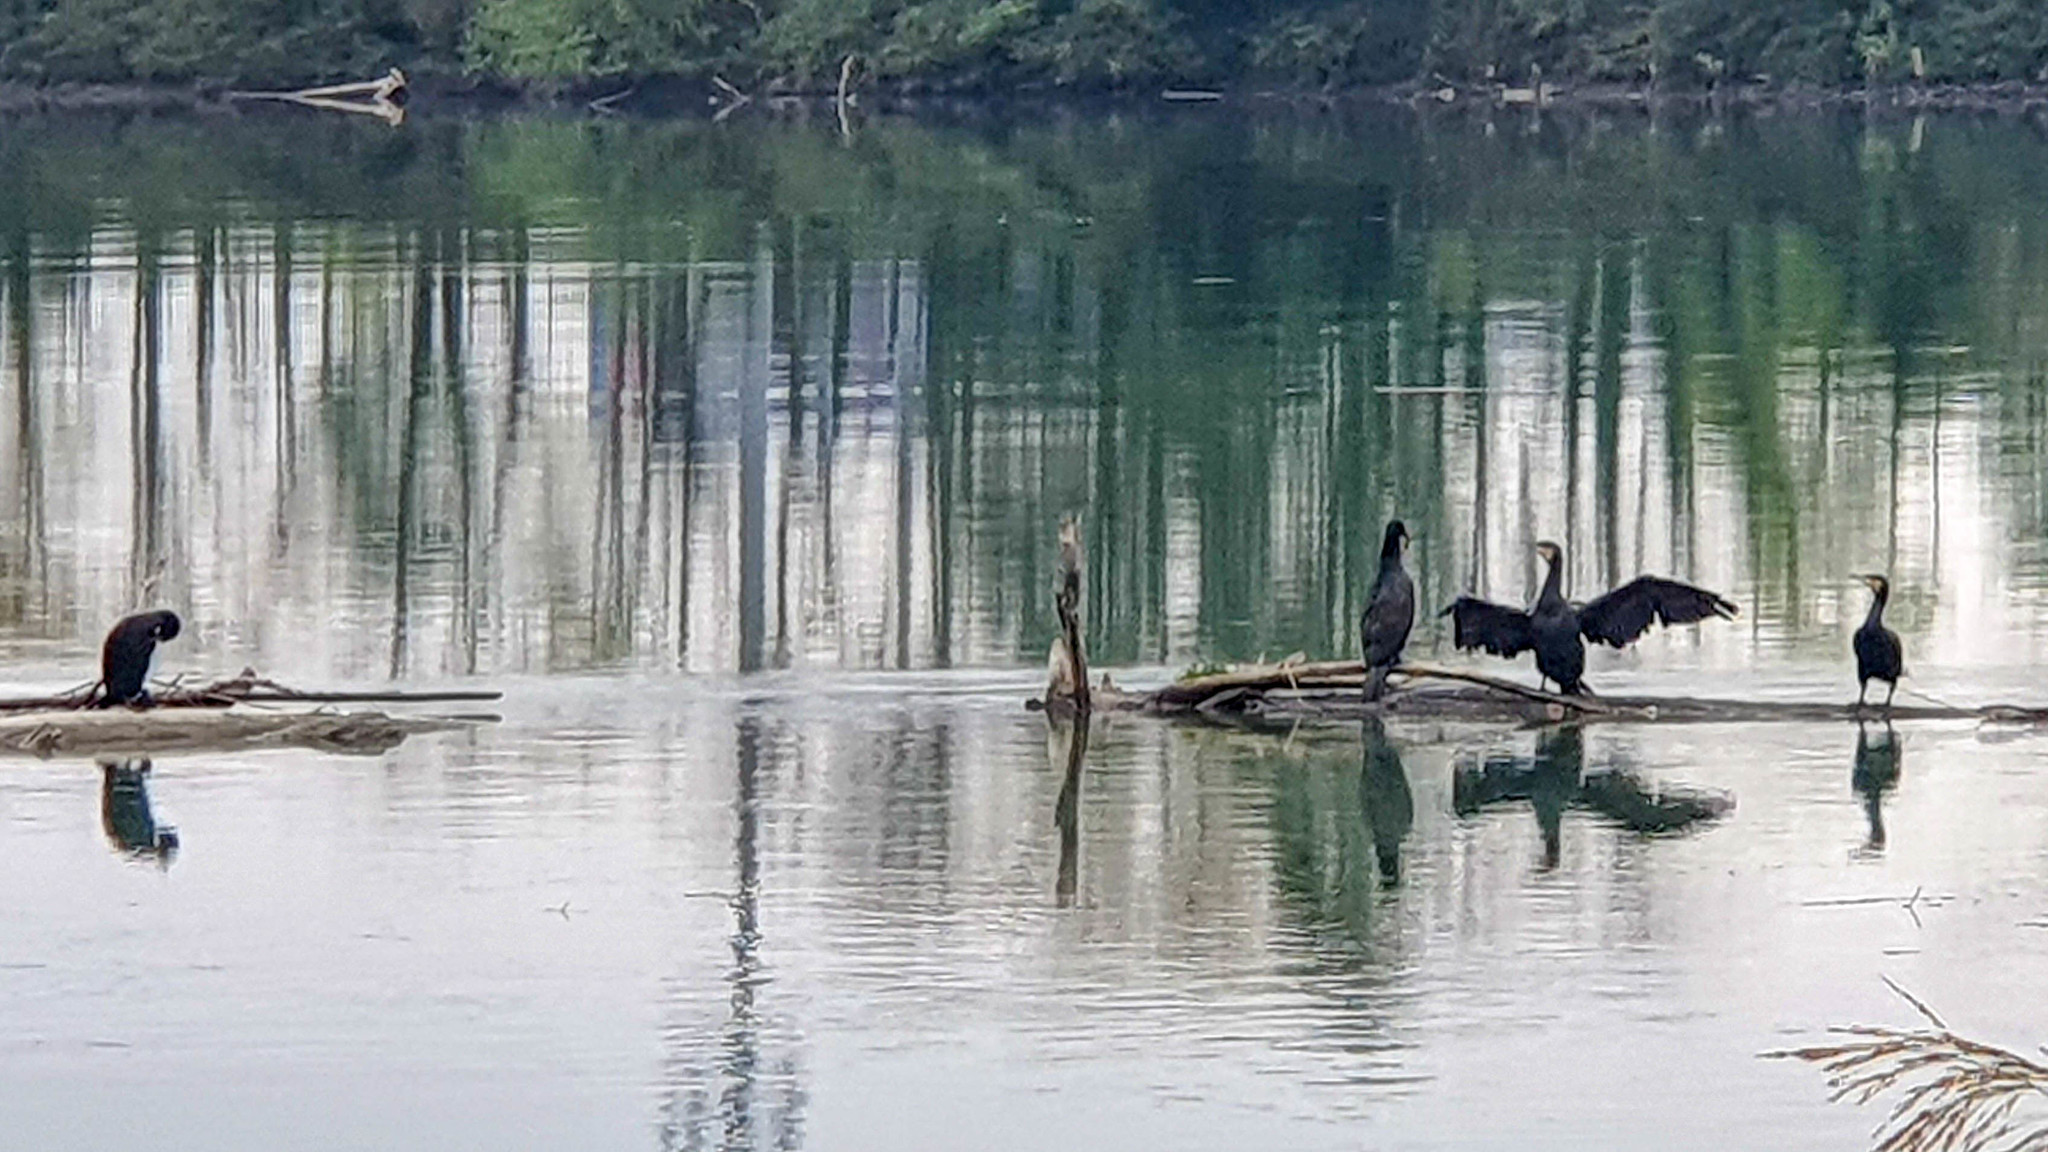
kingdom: Animalia
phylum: Chordata
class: Aves
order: Suliformes
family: Phalacrocoracidae
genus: Phalacrocorax
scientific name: Phalacrocorax carbo
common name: Great cormorant
